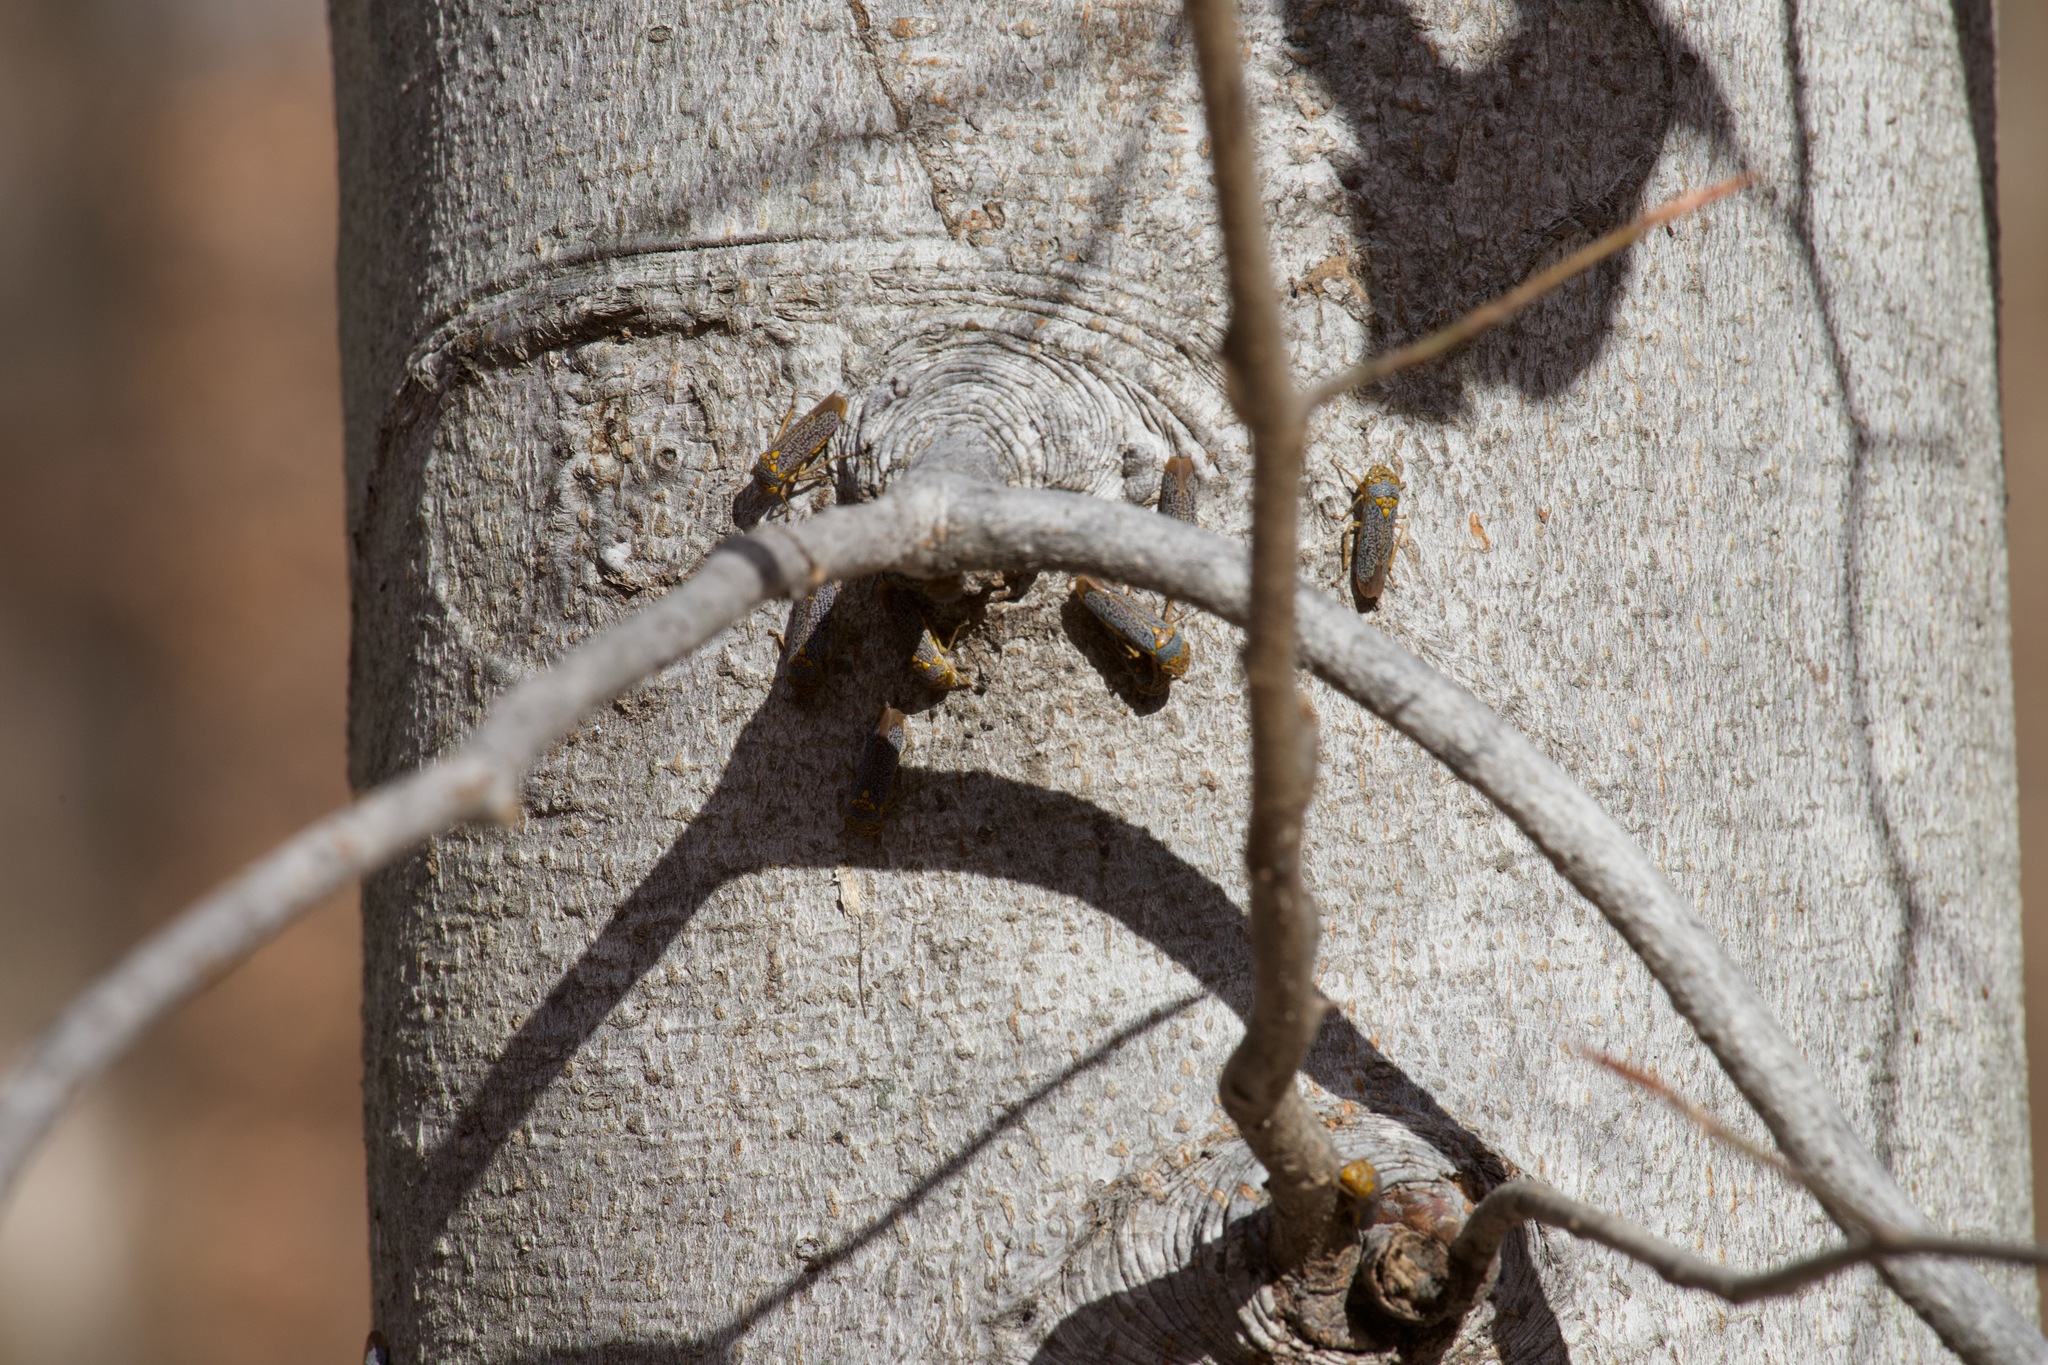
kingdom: Animalia
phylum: Arthropoda
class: Insecta
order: Hemiptera
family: Cicadellidae
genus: Oncometopia
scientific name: Oncometopia orbona
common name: Broad-headed sharpshooter
